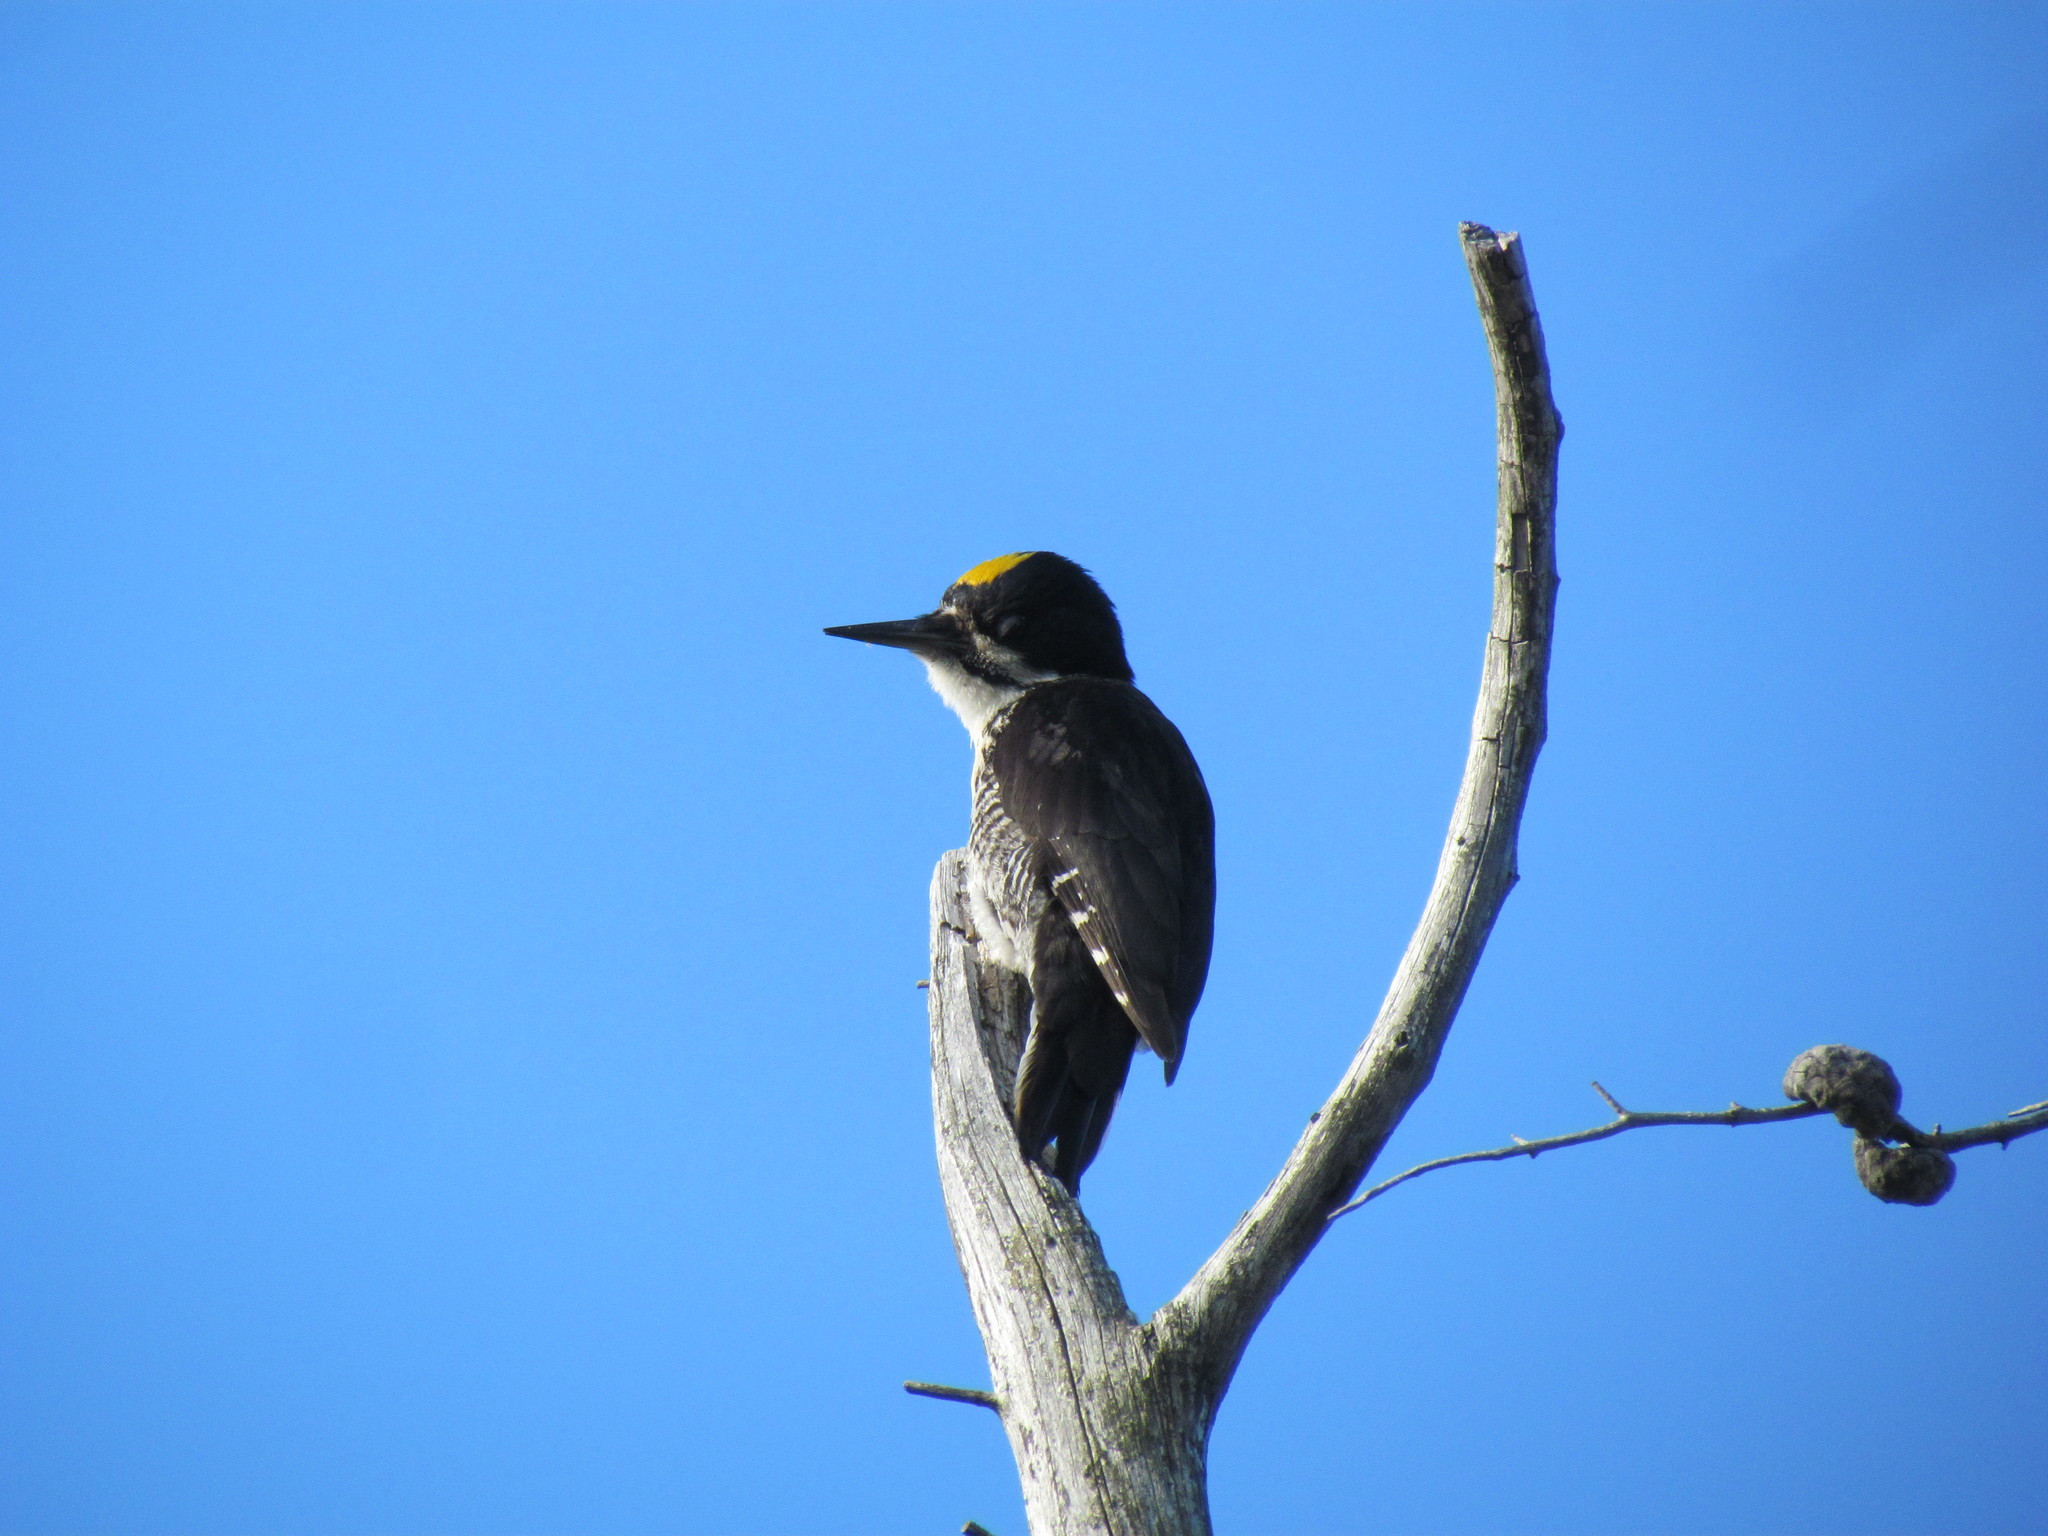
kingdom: Animalia
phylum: Chordata
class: Aves
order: Piciformes
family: Picidae
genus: Picoides
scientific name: Picoides arcticus
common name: Black-backed woodpecker
